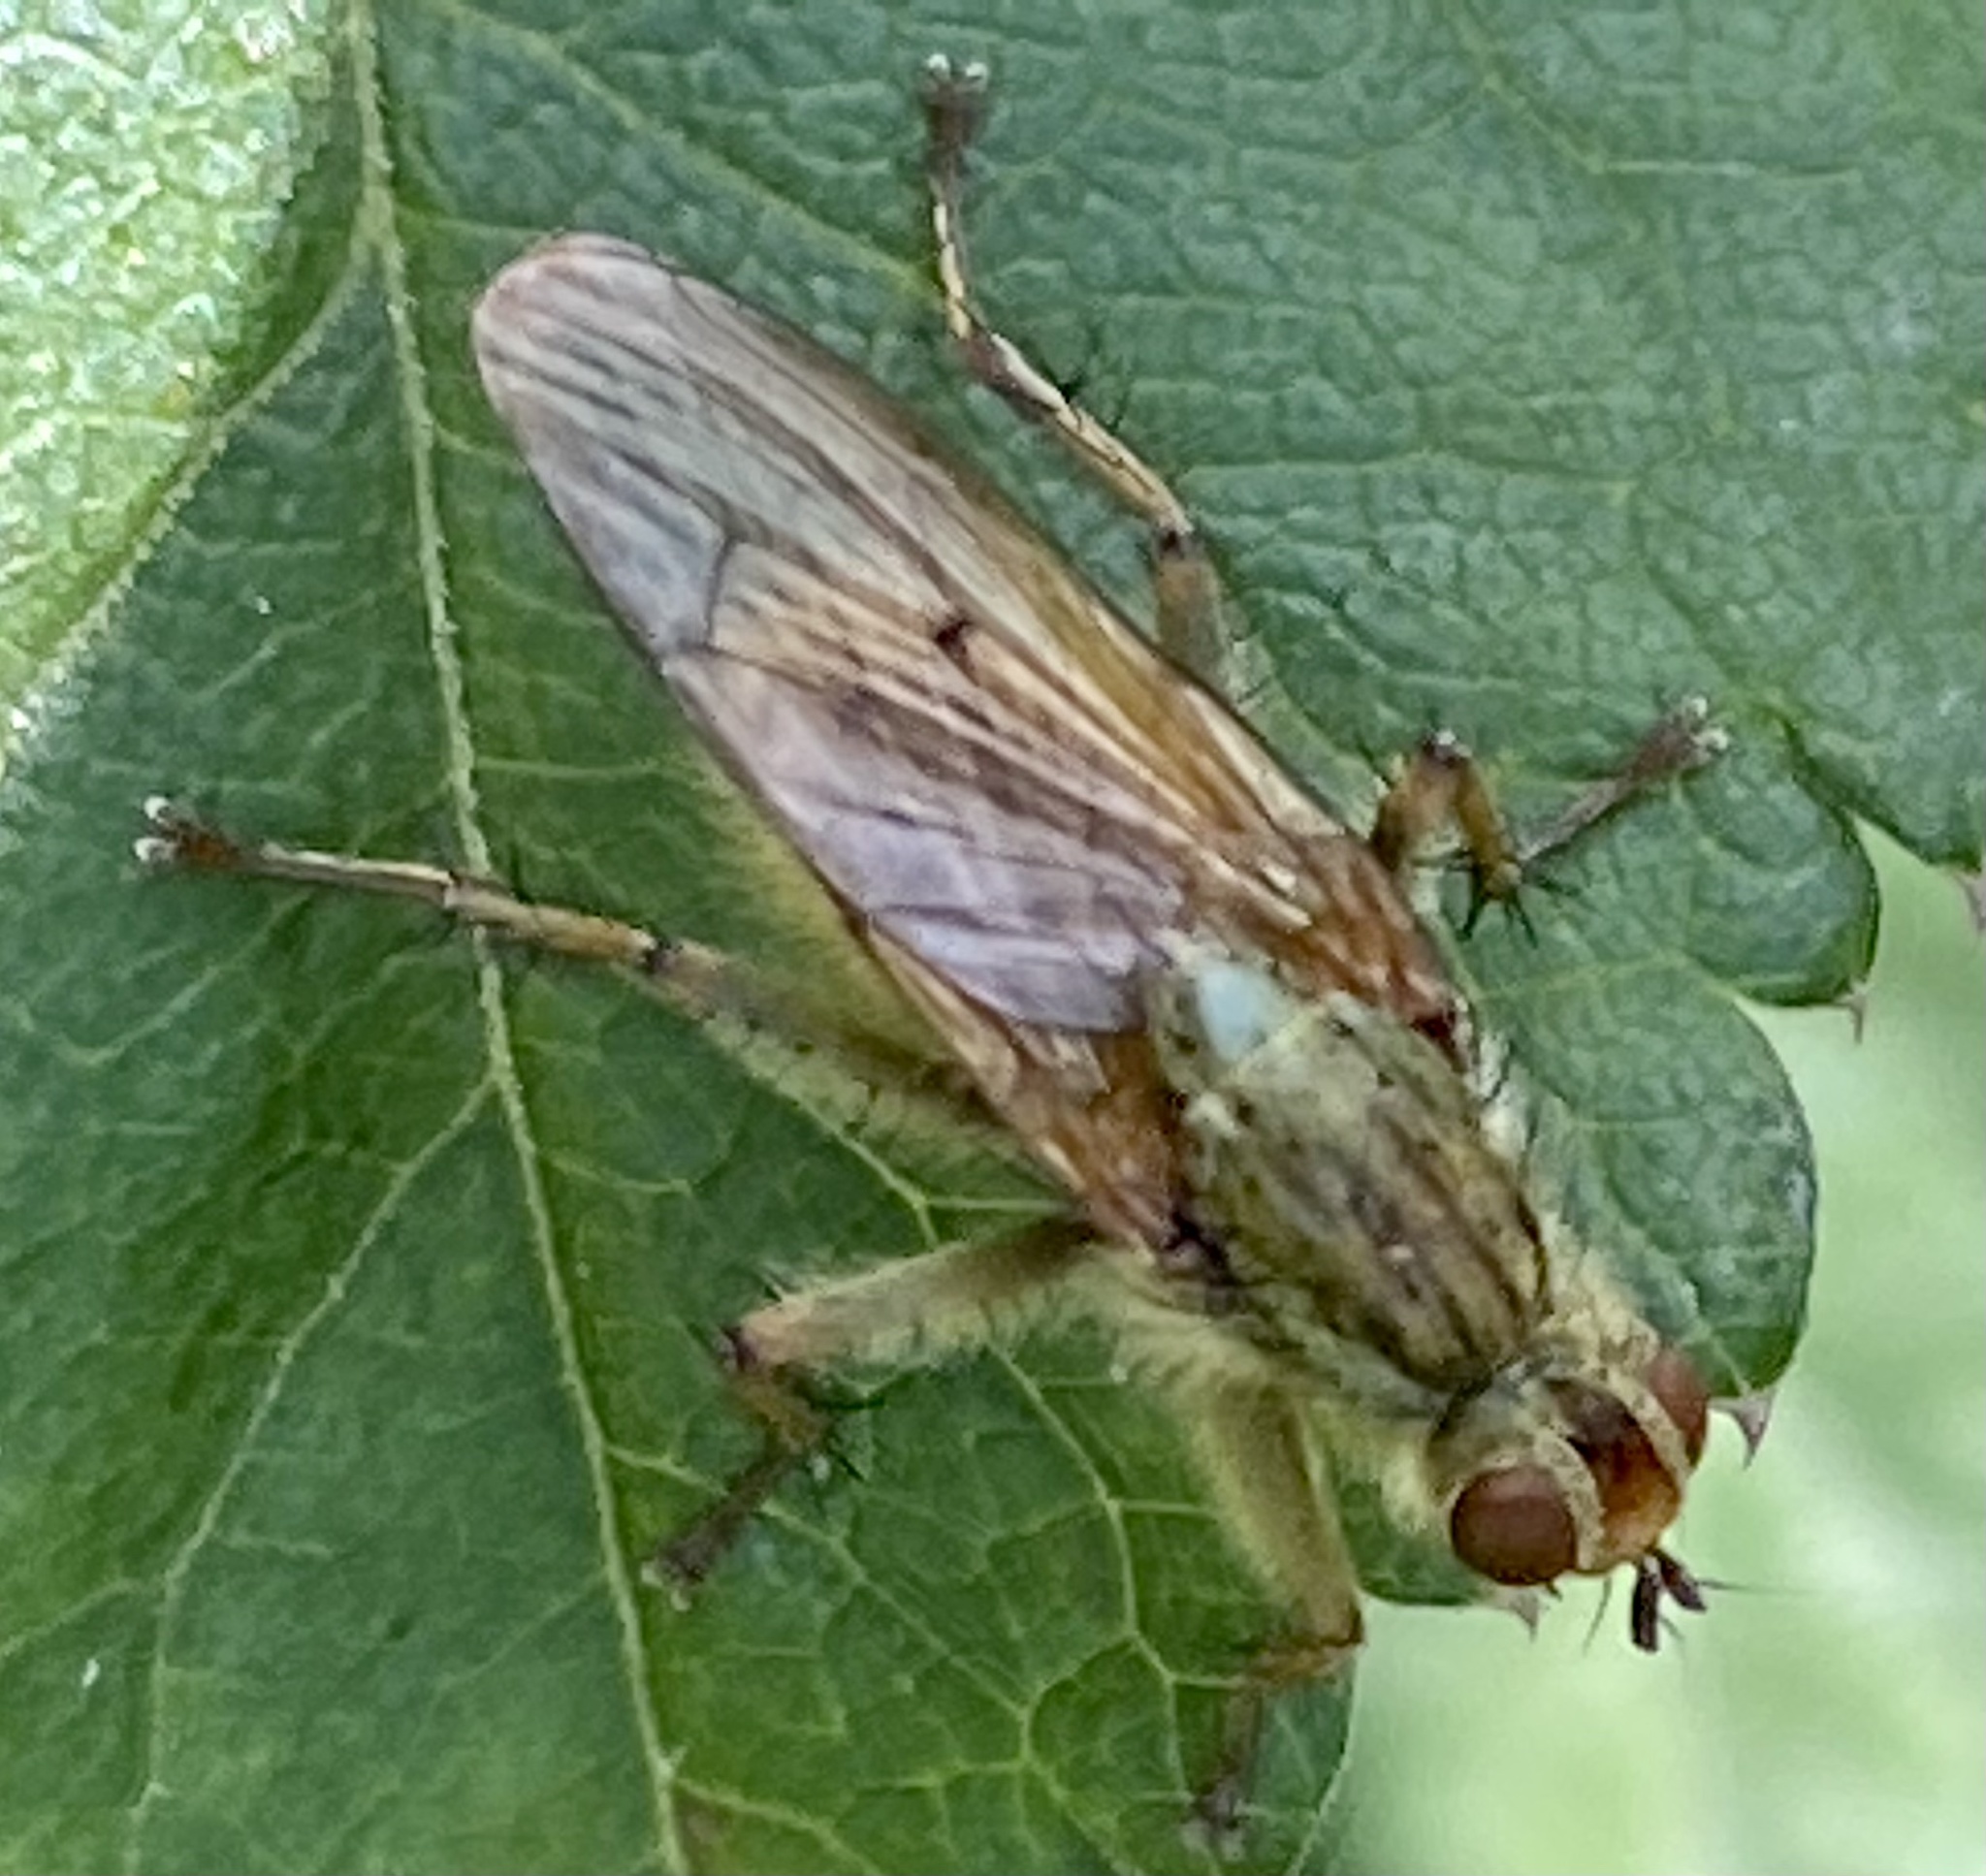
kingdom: Animalia
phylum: Arthropoda
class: Insecta
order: Diptera
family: Scathophagidae
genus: Scathophaga
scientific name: Scathophaga stercoraria
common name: Yellow dung fly
